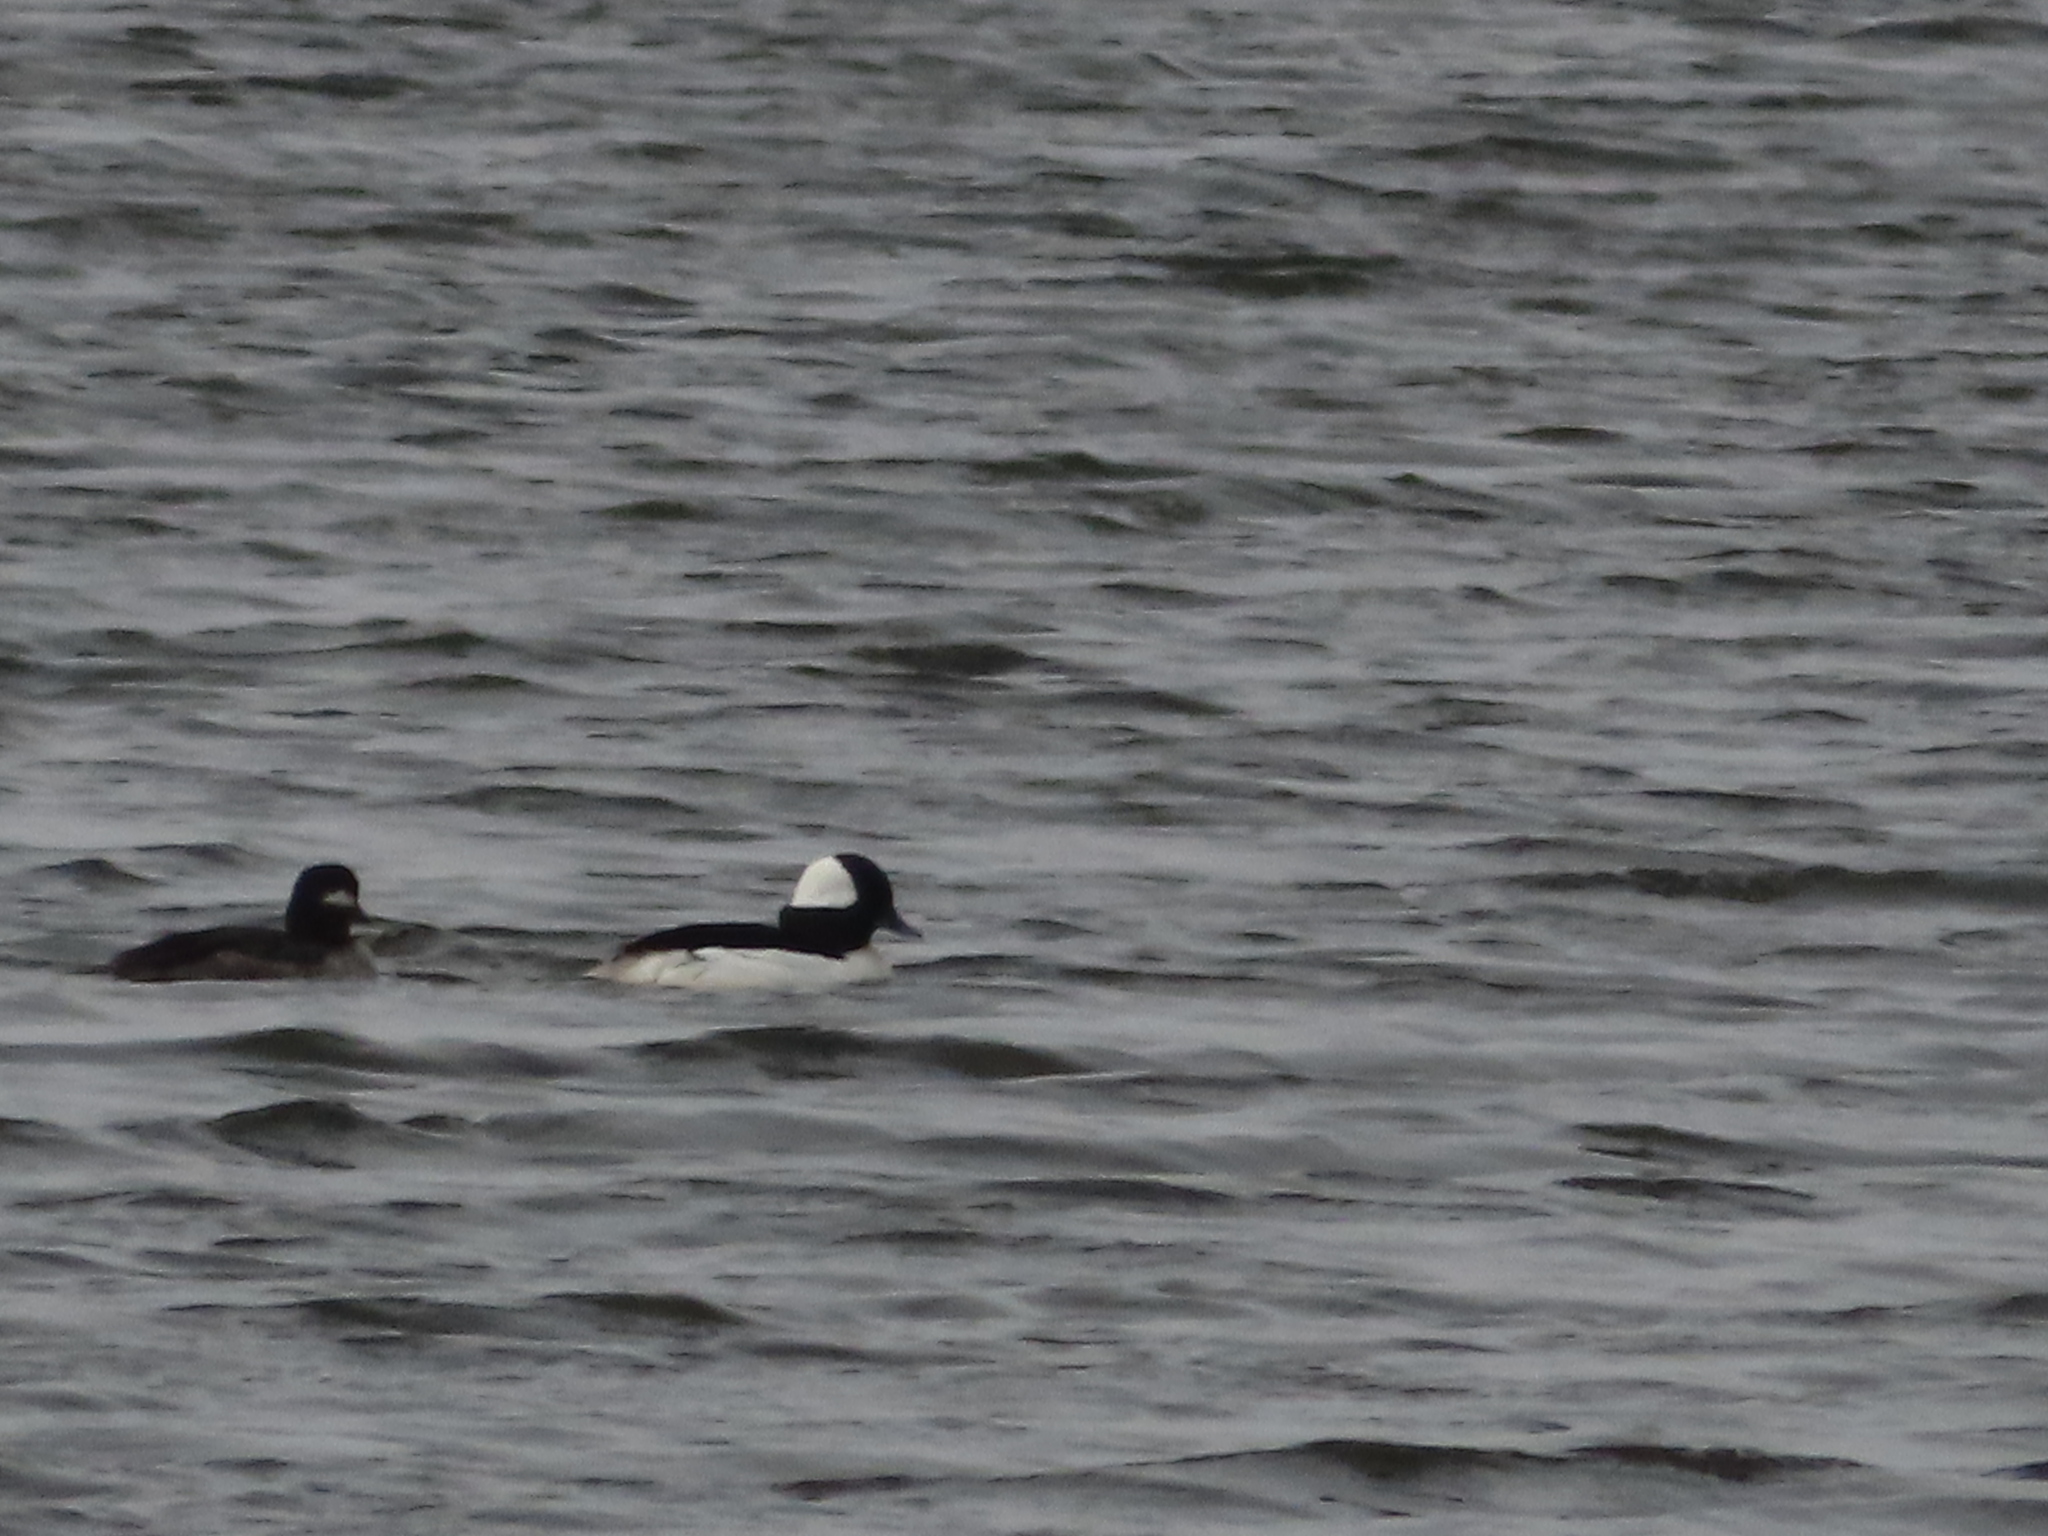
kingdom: Animalia
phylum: Chordata
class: Aves
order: Anseriformes
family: Anatidae
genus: Bucephala
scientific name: Bucephala albeola
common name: Bufflehead
